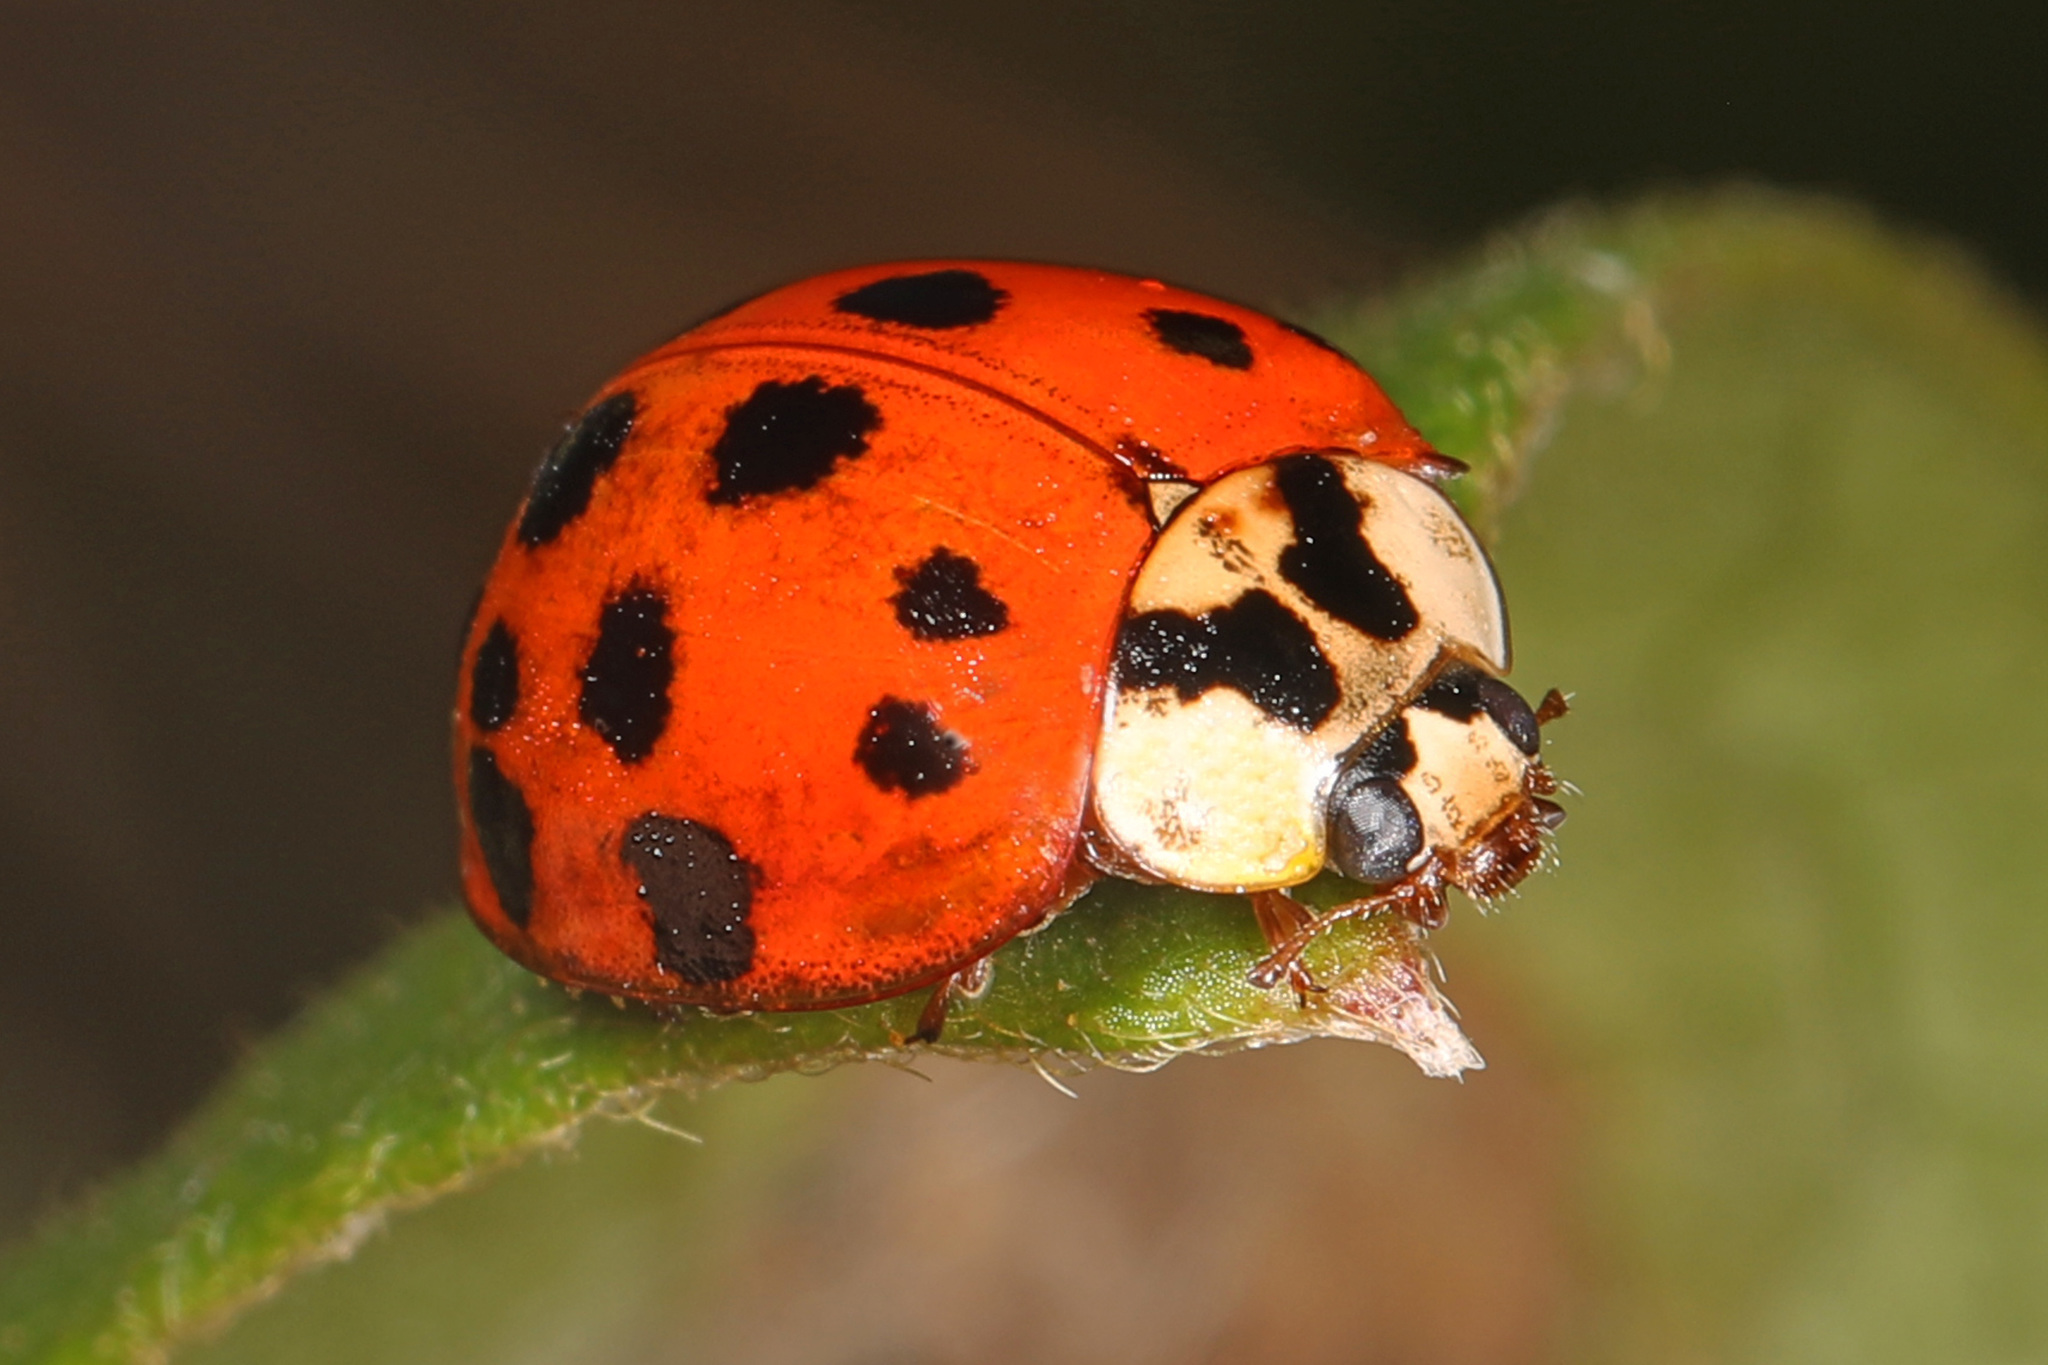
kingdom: Animalia
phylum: Arthropoda
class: Insecta
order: Coleoptera
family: Coccinellidae
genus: Harmonia
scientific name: Harmonia axyridis
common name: Harlequin ladybird
